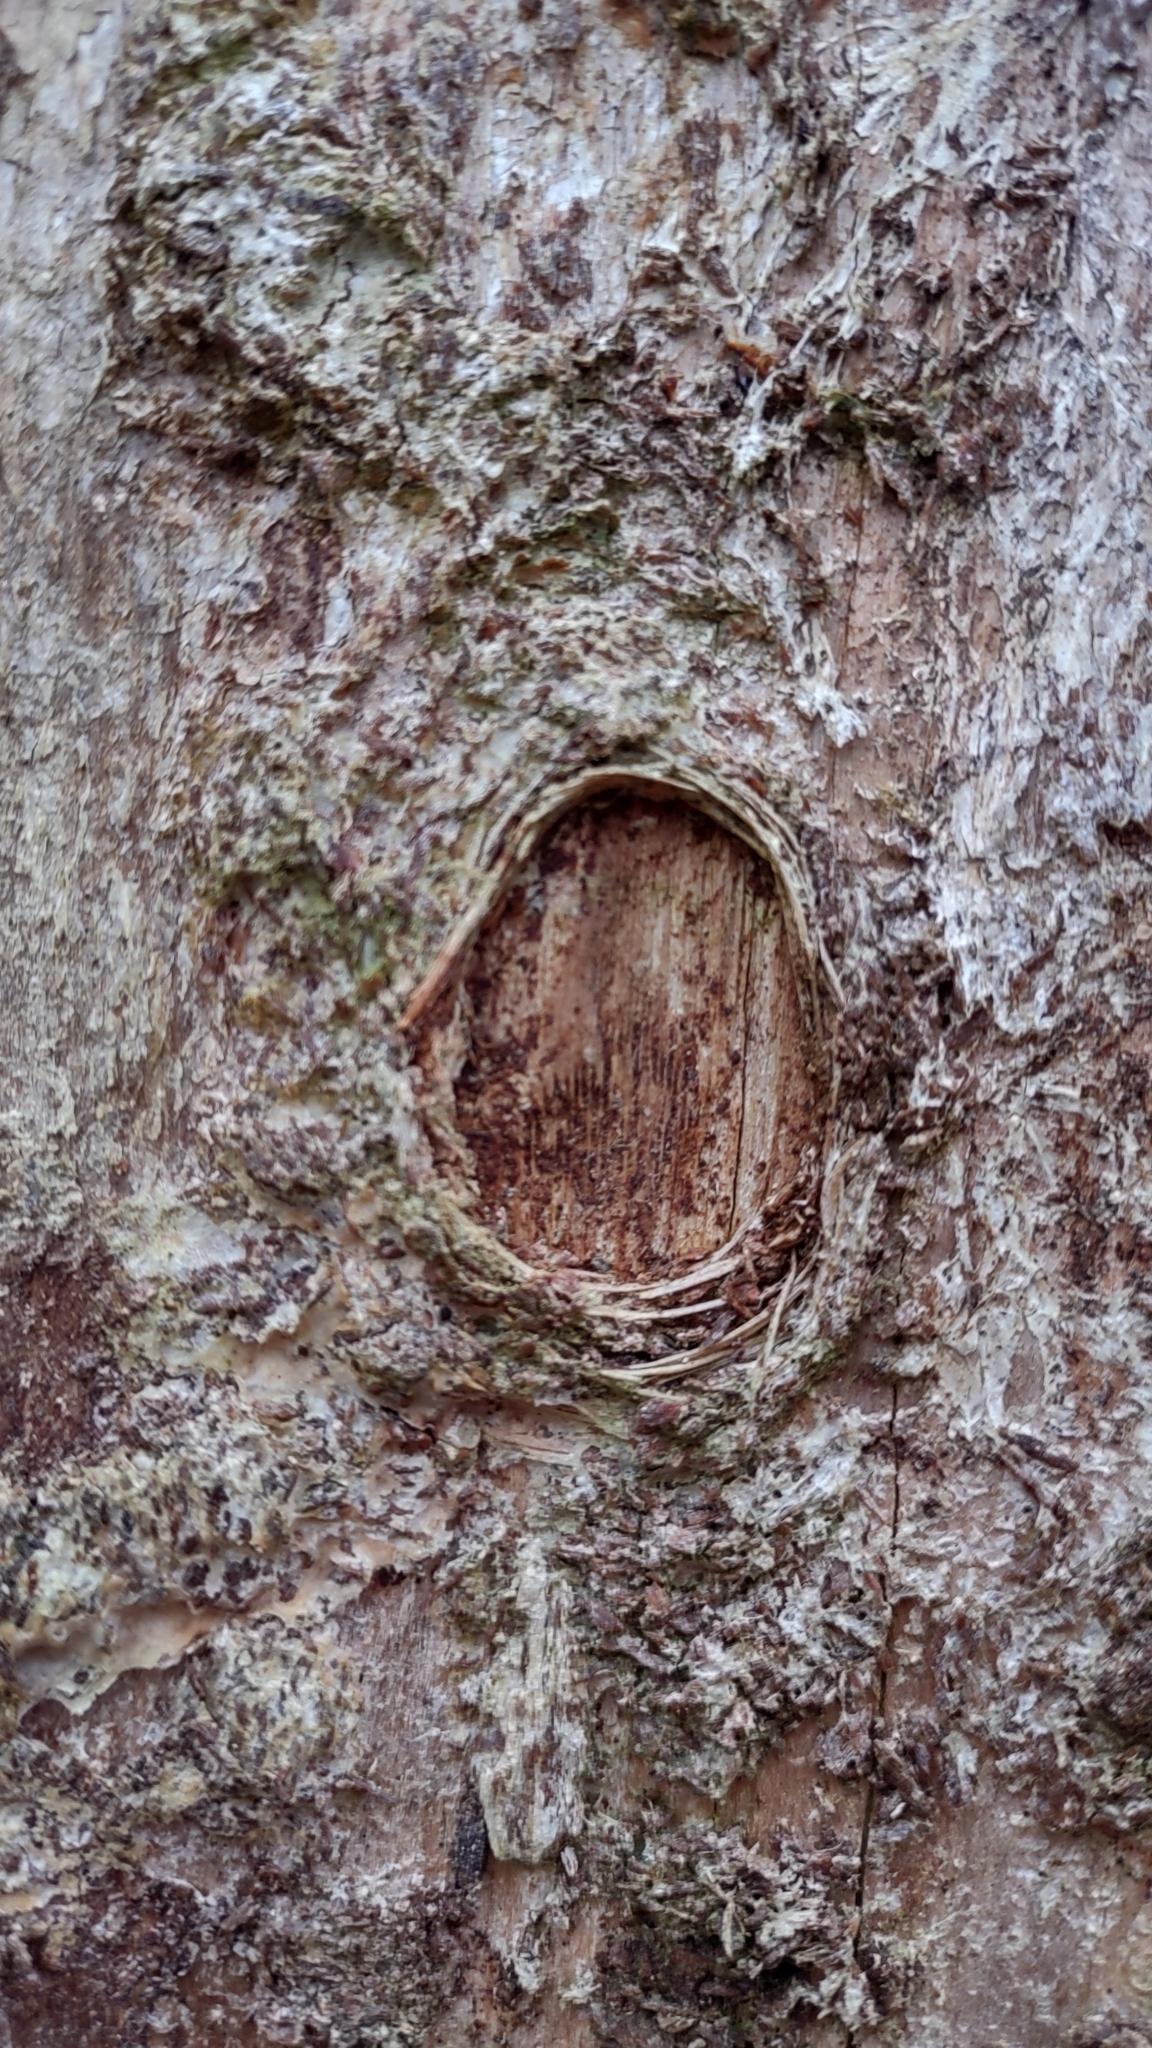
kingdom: Animalia
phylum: Arthropoda
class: Insecta
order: Coleoptera
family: Cerambycidae
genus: Rhagium
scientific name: Rhagium inquisitor
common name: Ribbed pine borer
